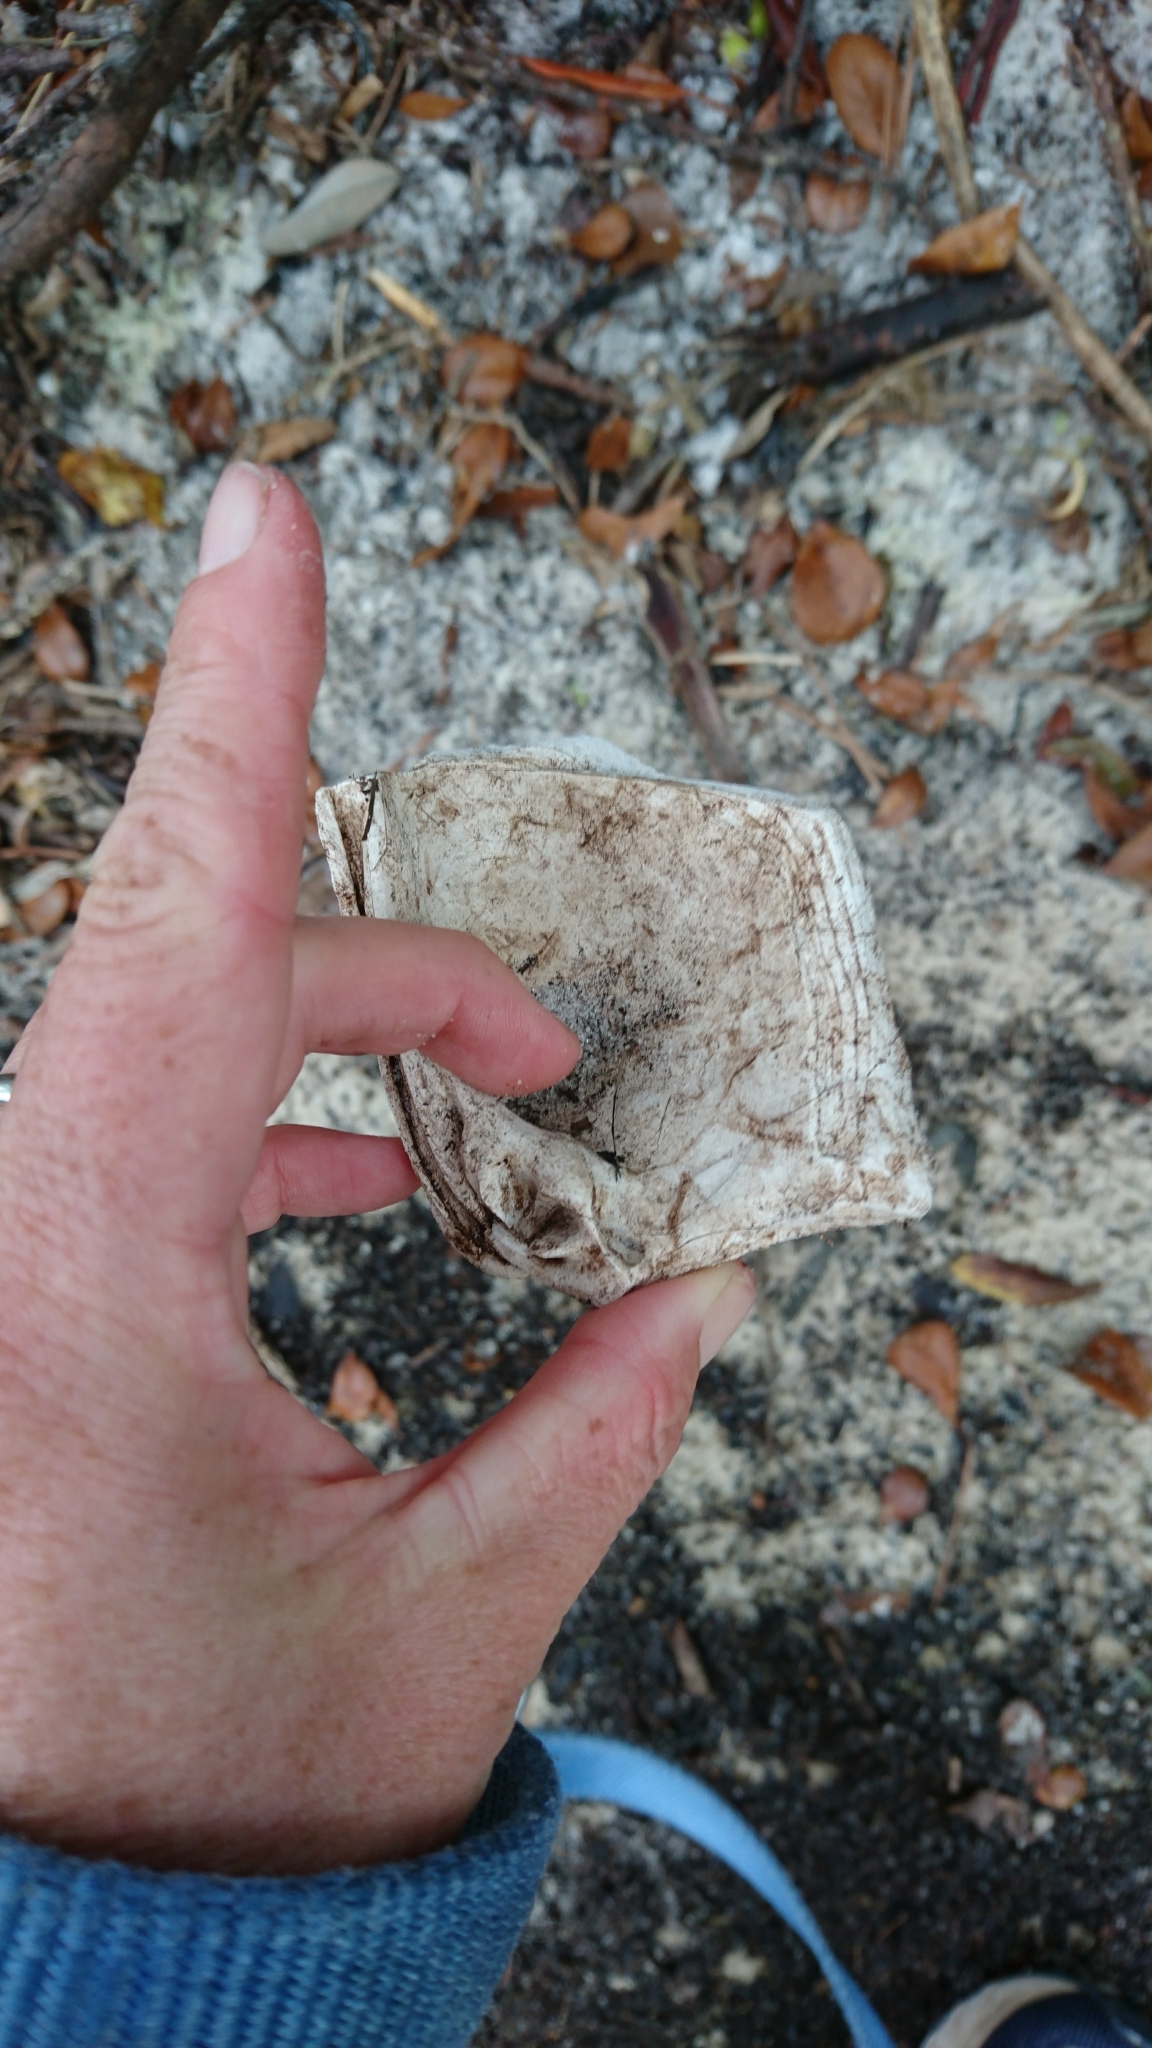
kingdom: Animalia
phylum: Mollusca
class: Bivalvia
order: Venerida
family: Veneridae
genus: Mercenaria
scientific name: Mercenaria campechiensis
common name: Südliche quahog-muschel
